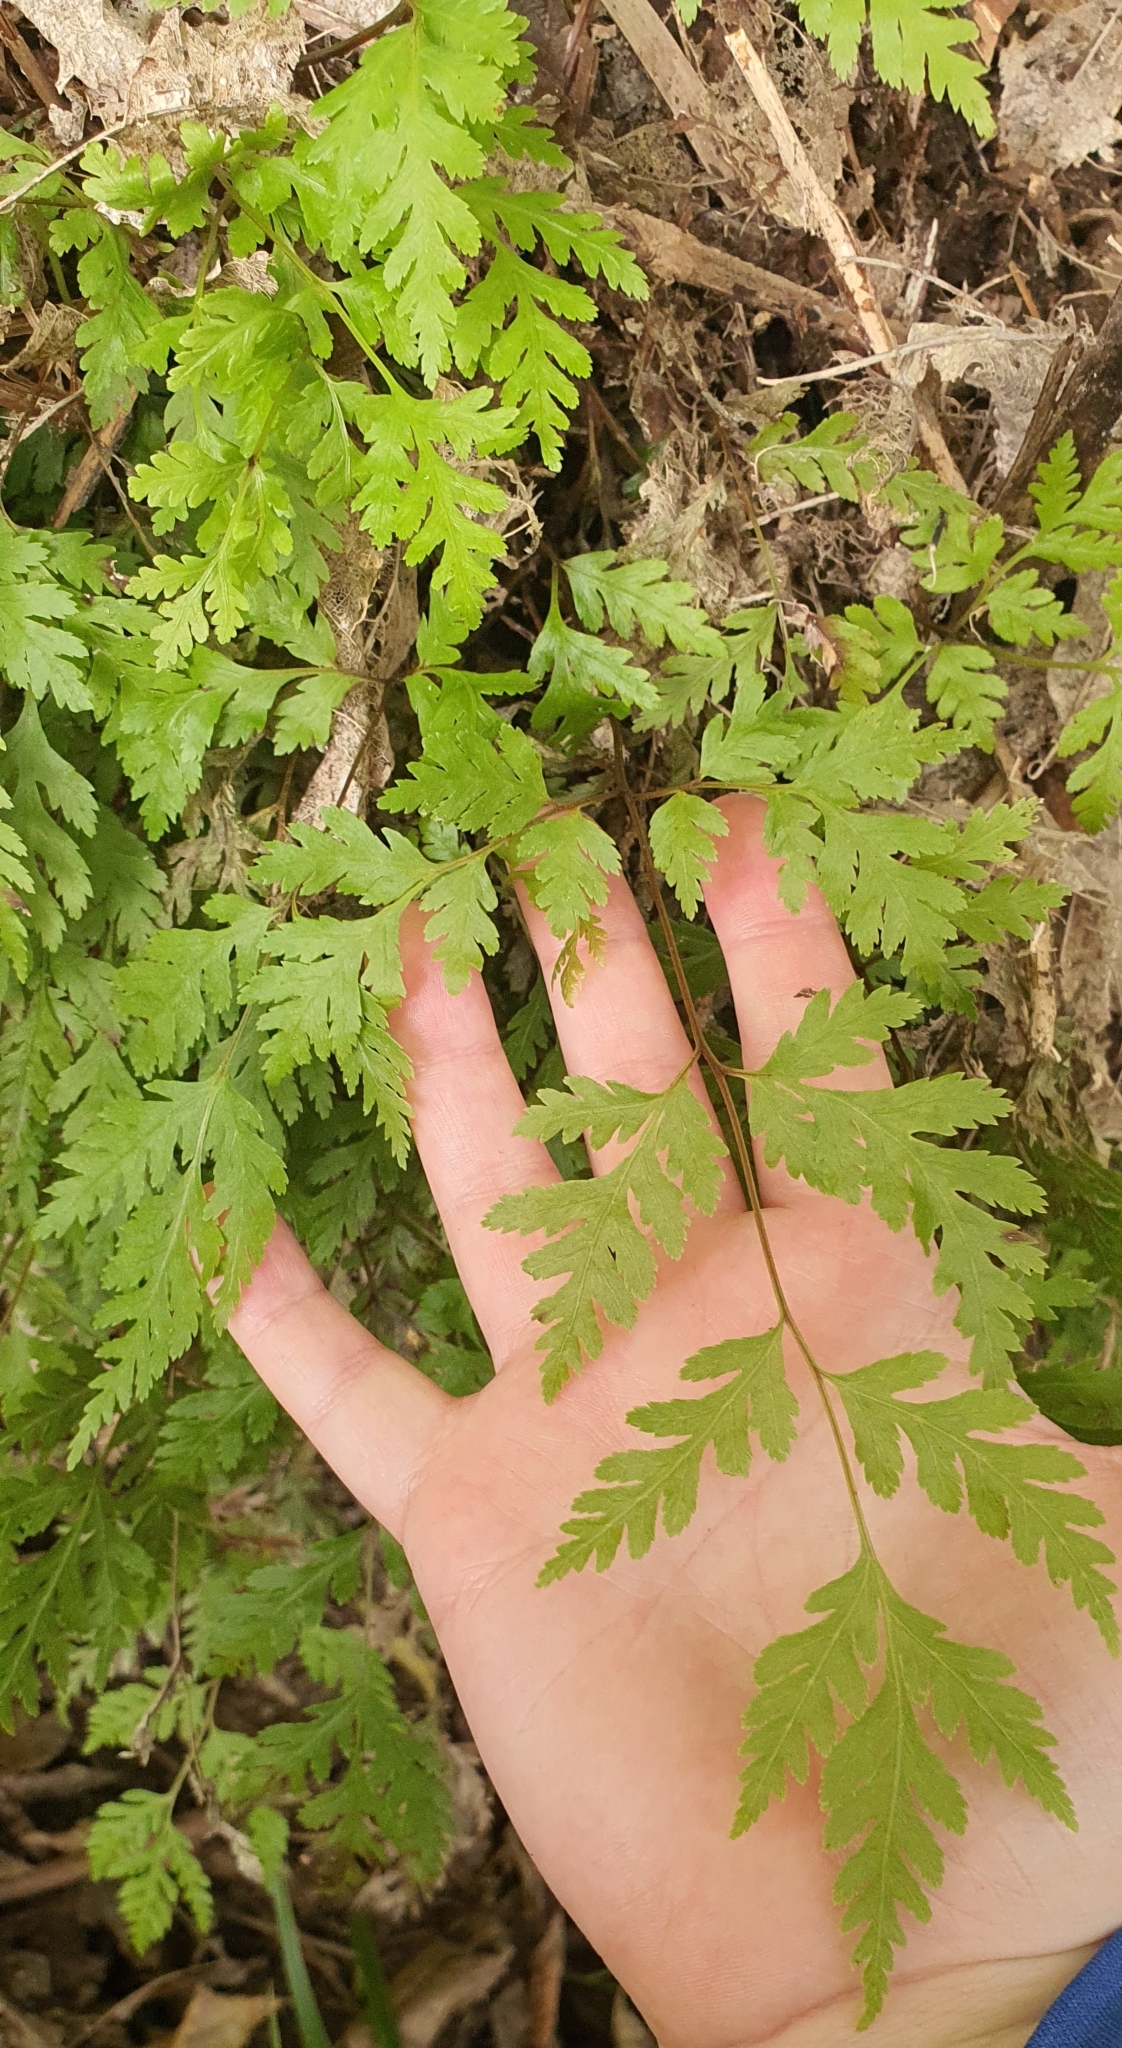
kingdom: Plantae
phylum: Tracheophyta
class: Polypodiopsida
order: Polypodiales
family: Pteridaceae
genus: Pteris
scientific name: Pteris macilenta
